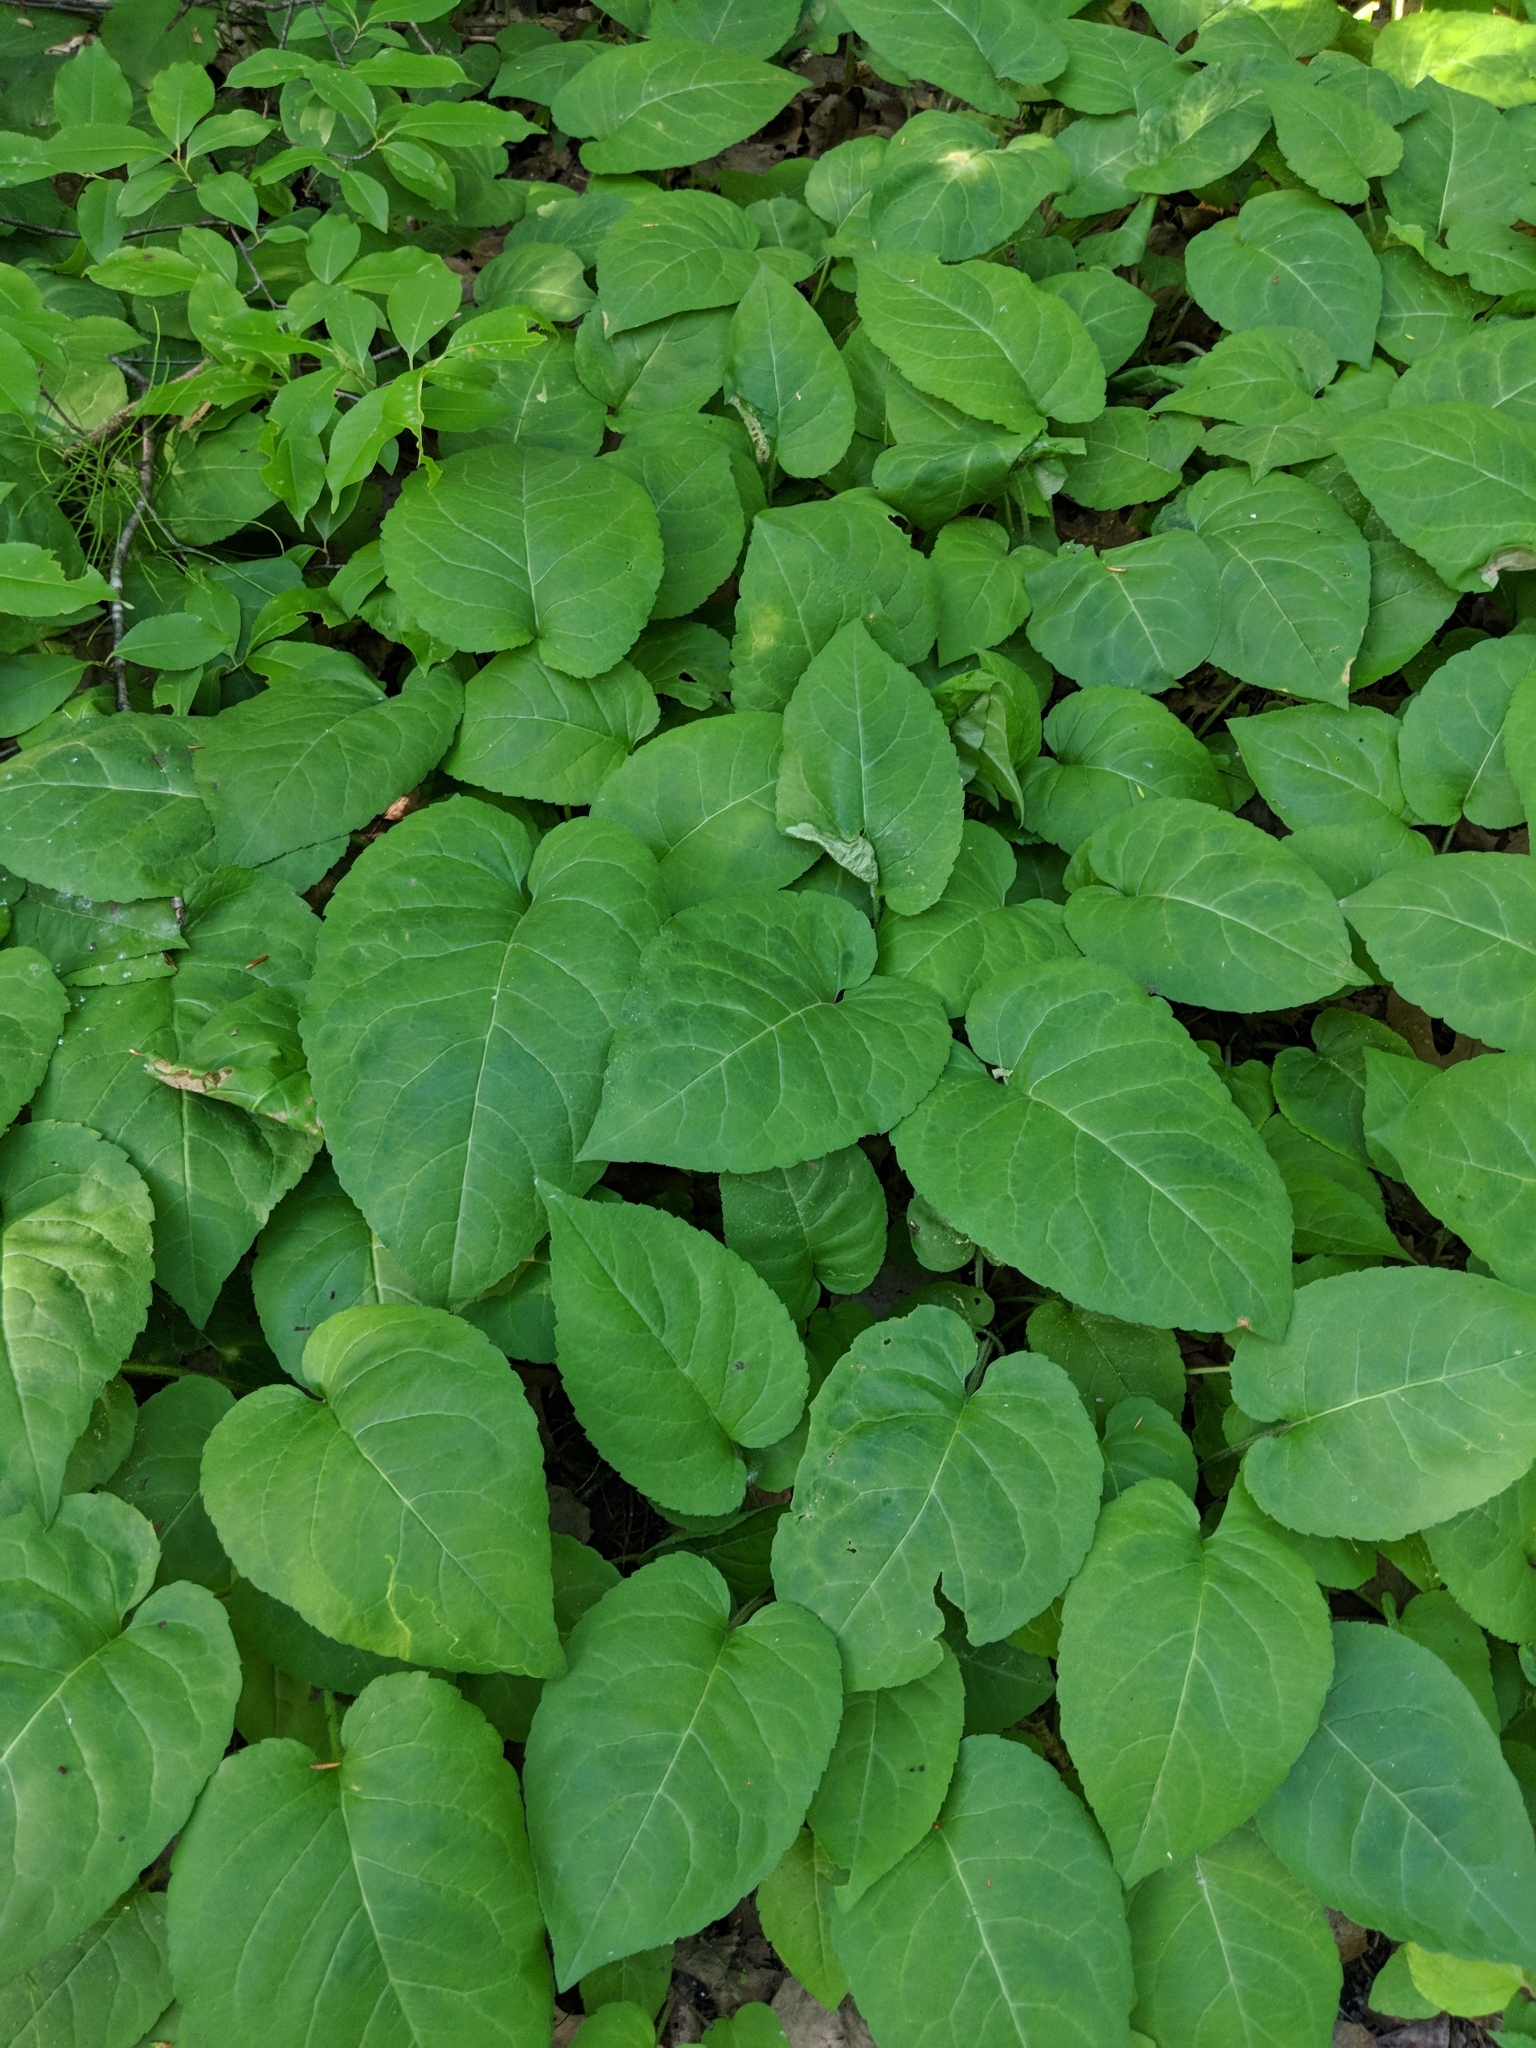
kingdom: Plantae
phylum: Tracheophyta
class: Magnoliopsida
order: Asterales
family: Asteraceae
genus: Eurybia
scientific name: Eurybia macrophylla
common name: Big-leaved aster
